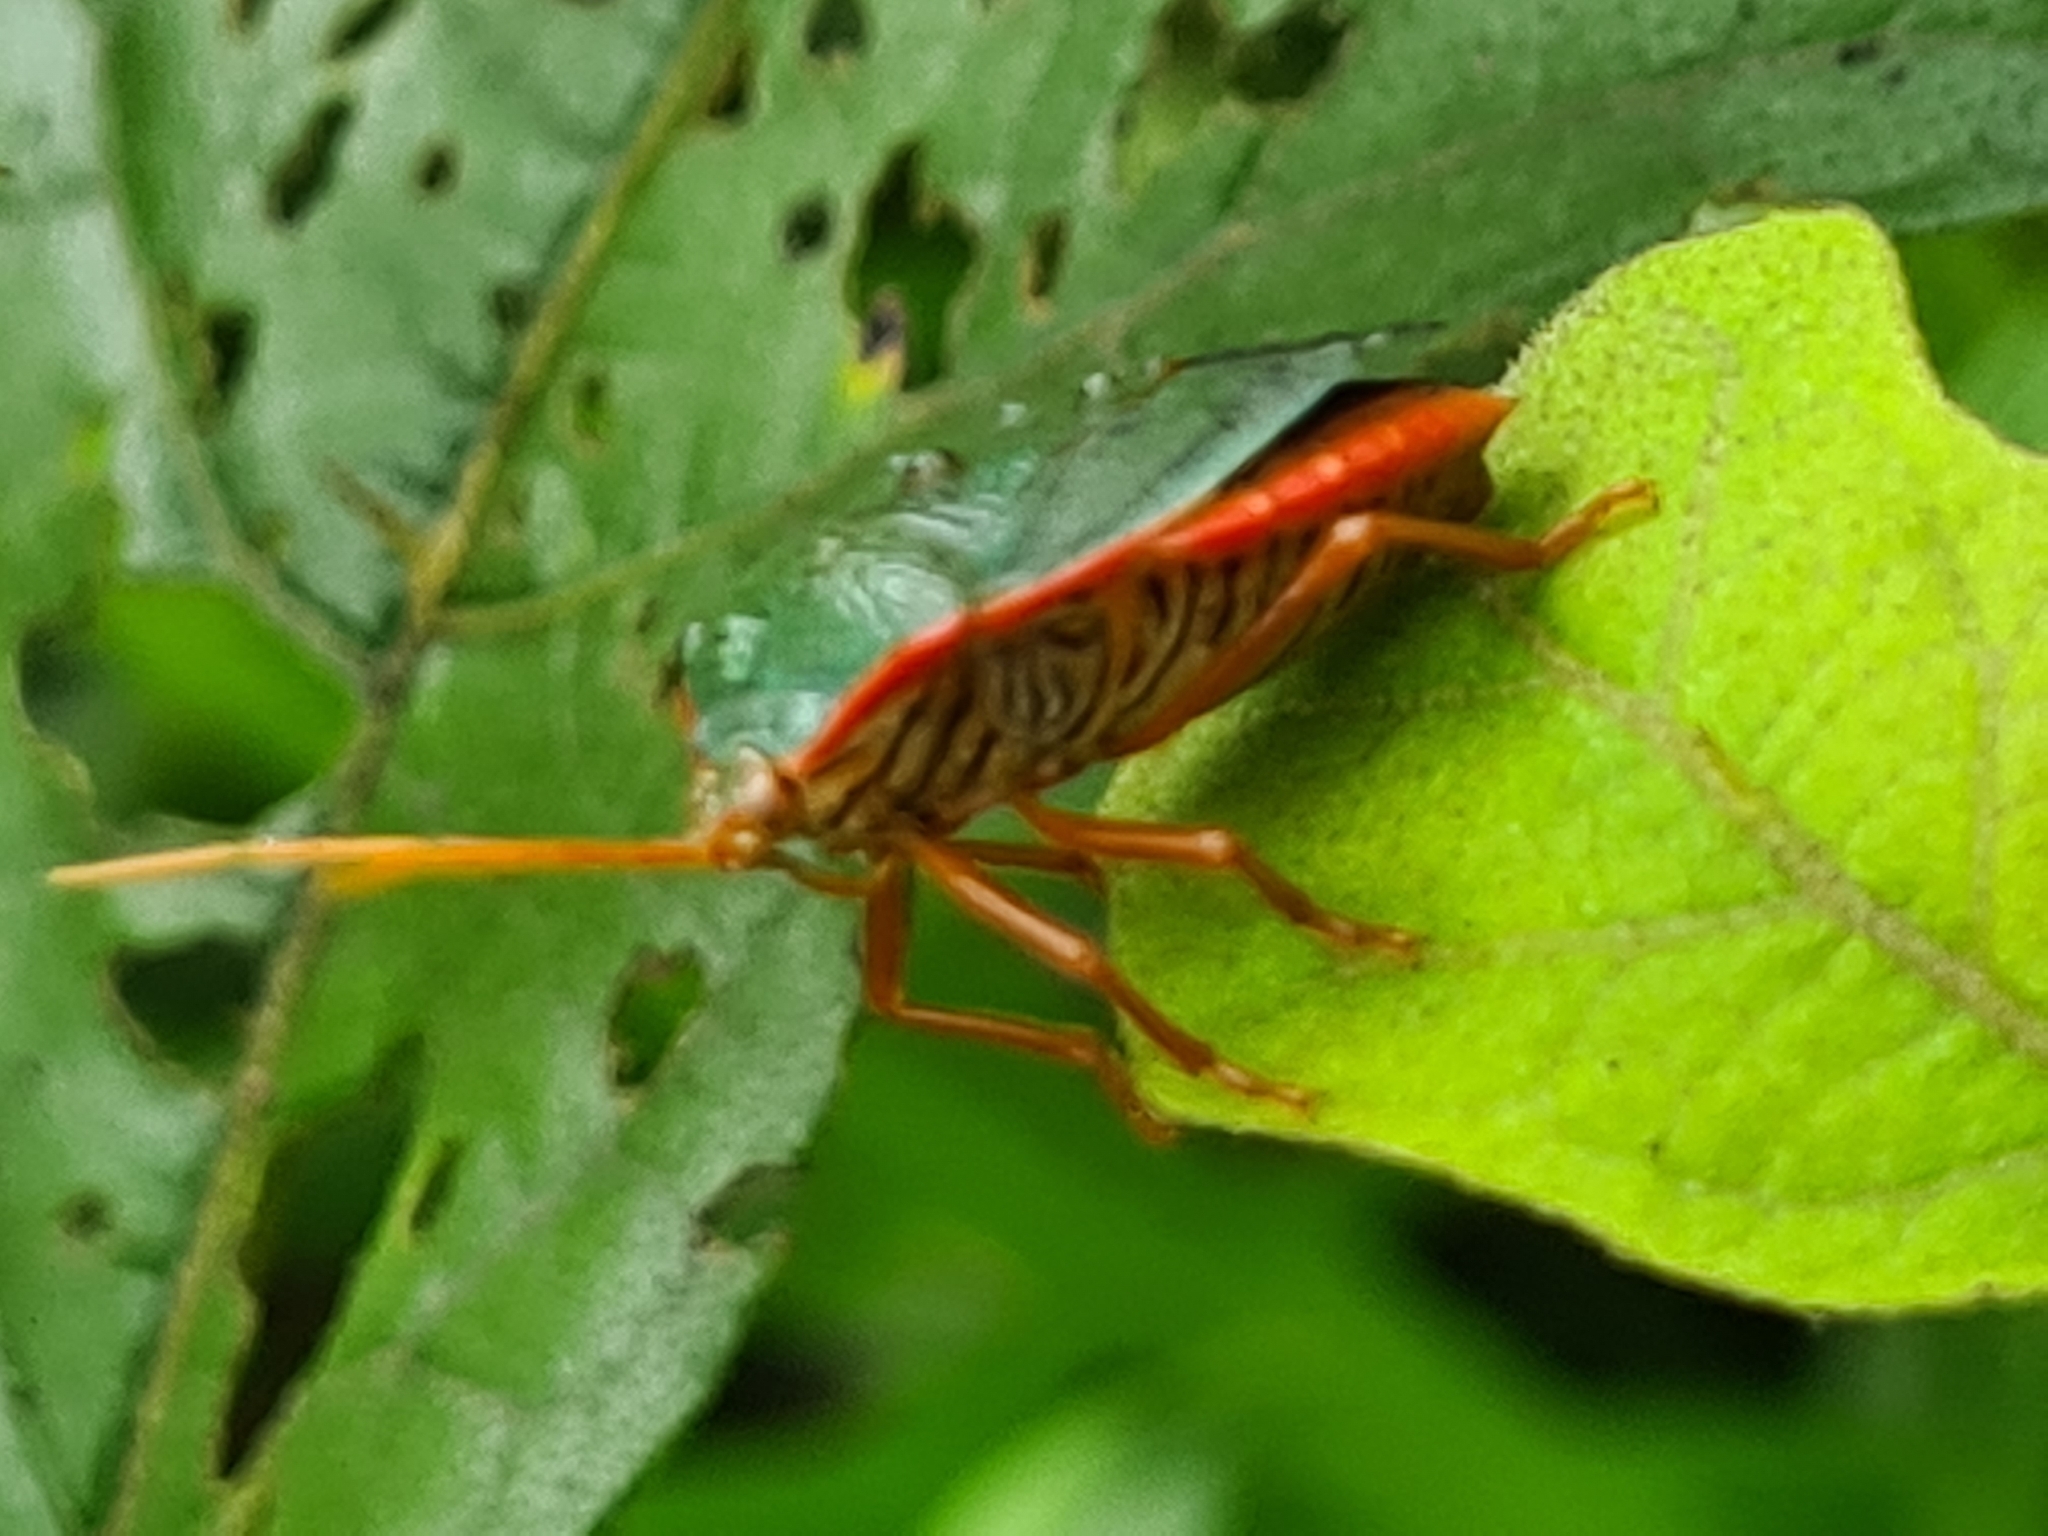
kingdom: Animalia
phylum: Arthropoda
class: Insecta
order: Hemiptera
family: Pentatomidae
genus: Edessa
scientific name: Edessa rufomarginata
